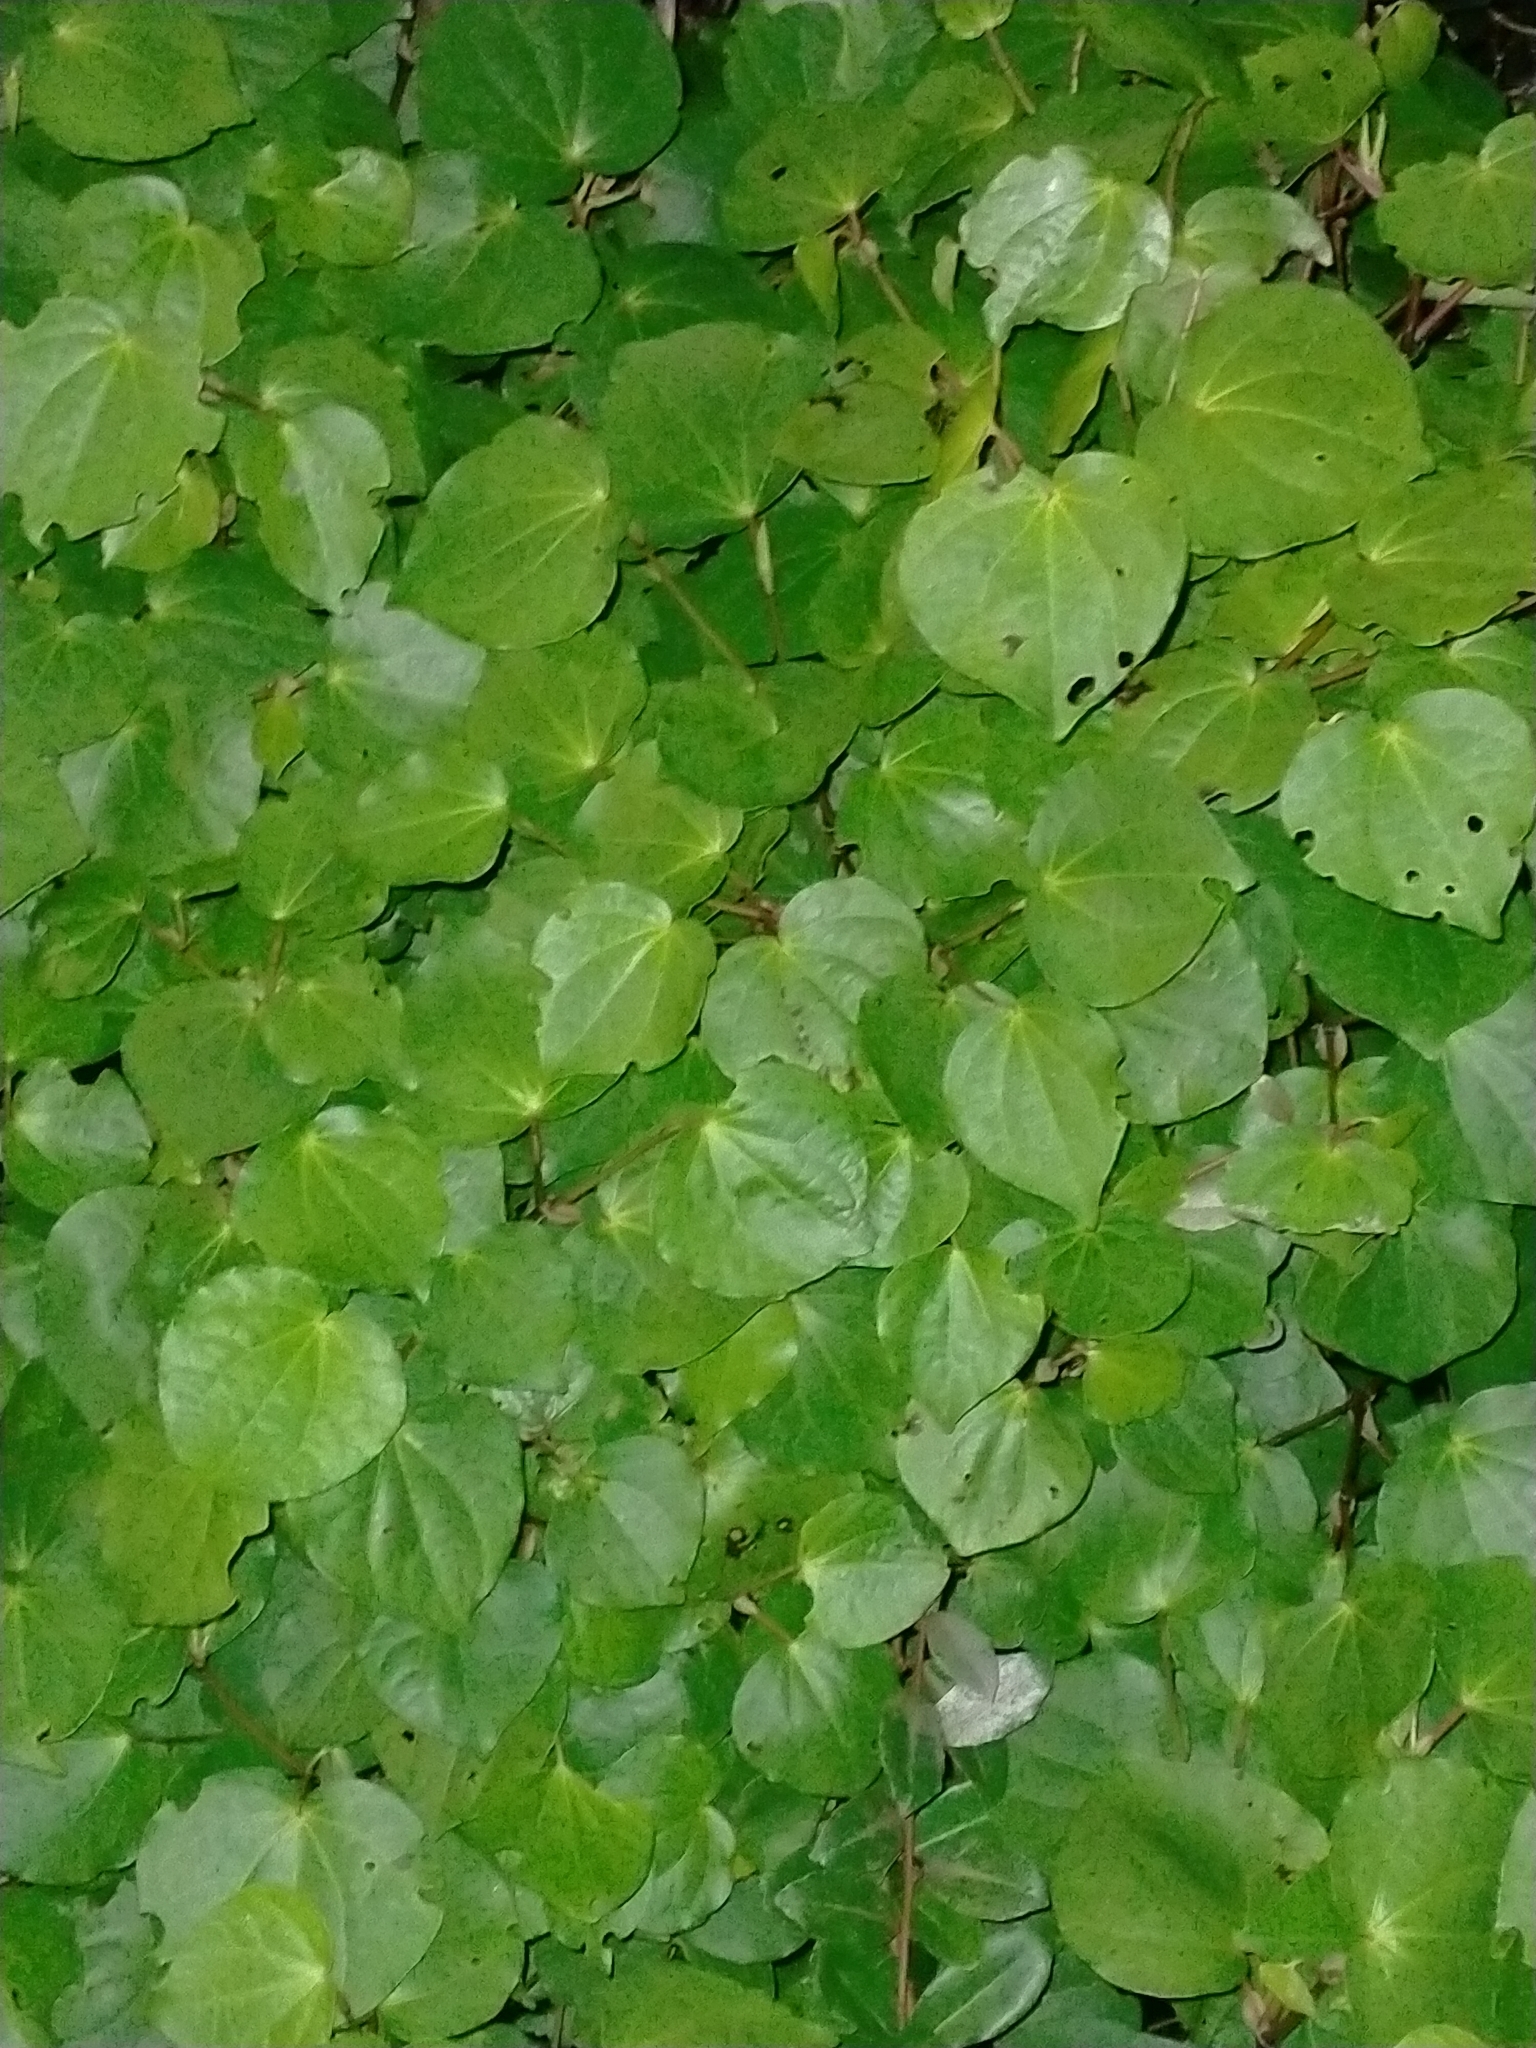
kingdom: Plantae
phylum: Tracheophyta
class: Magnoliopsida
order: Piperales
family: Piperaceae
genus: Macropiper
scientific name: Macropiper excelsum
